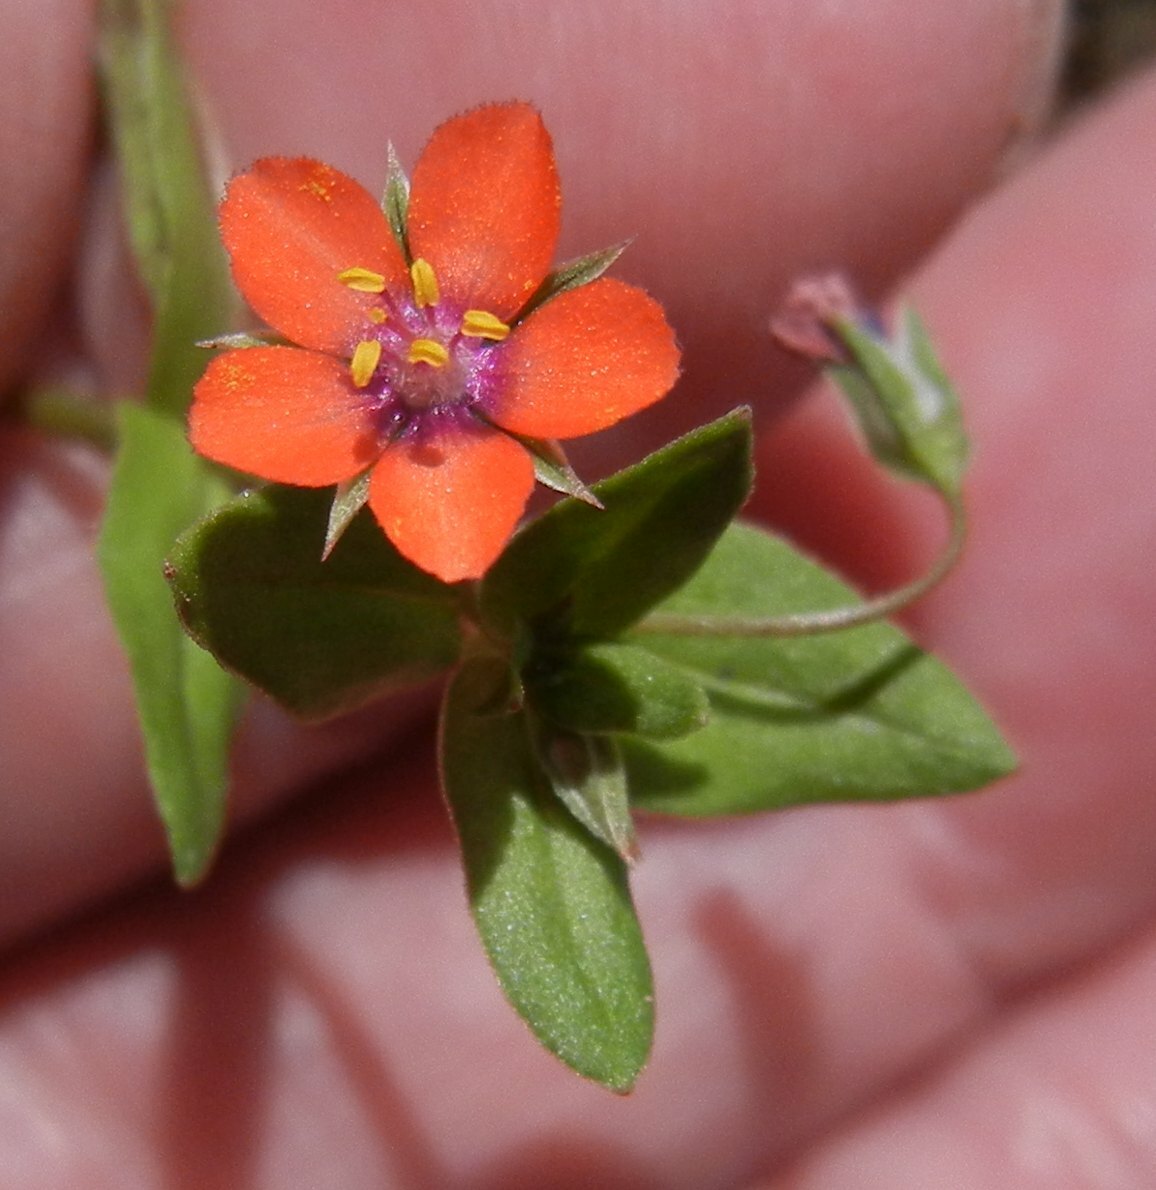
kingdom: Plantae
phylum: Tracheophyta
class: Magnoliopsida
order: Ericales
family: Primulaceae
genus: Lysimachia
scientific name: Lysimachia arvensis
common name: Scarlet pimpernel
